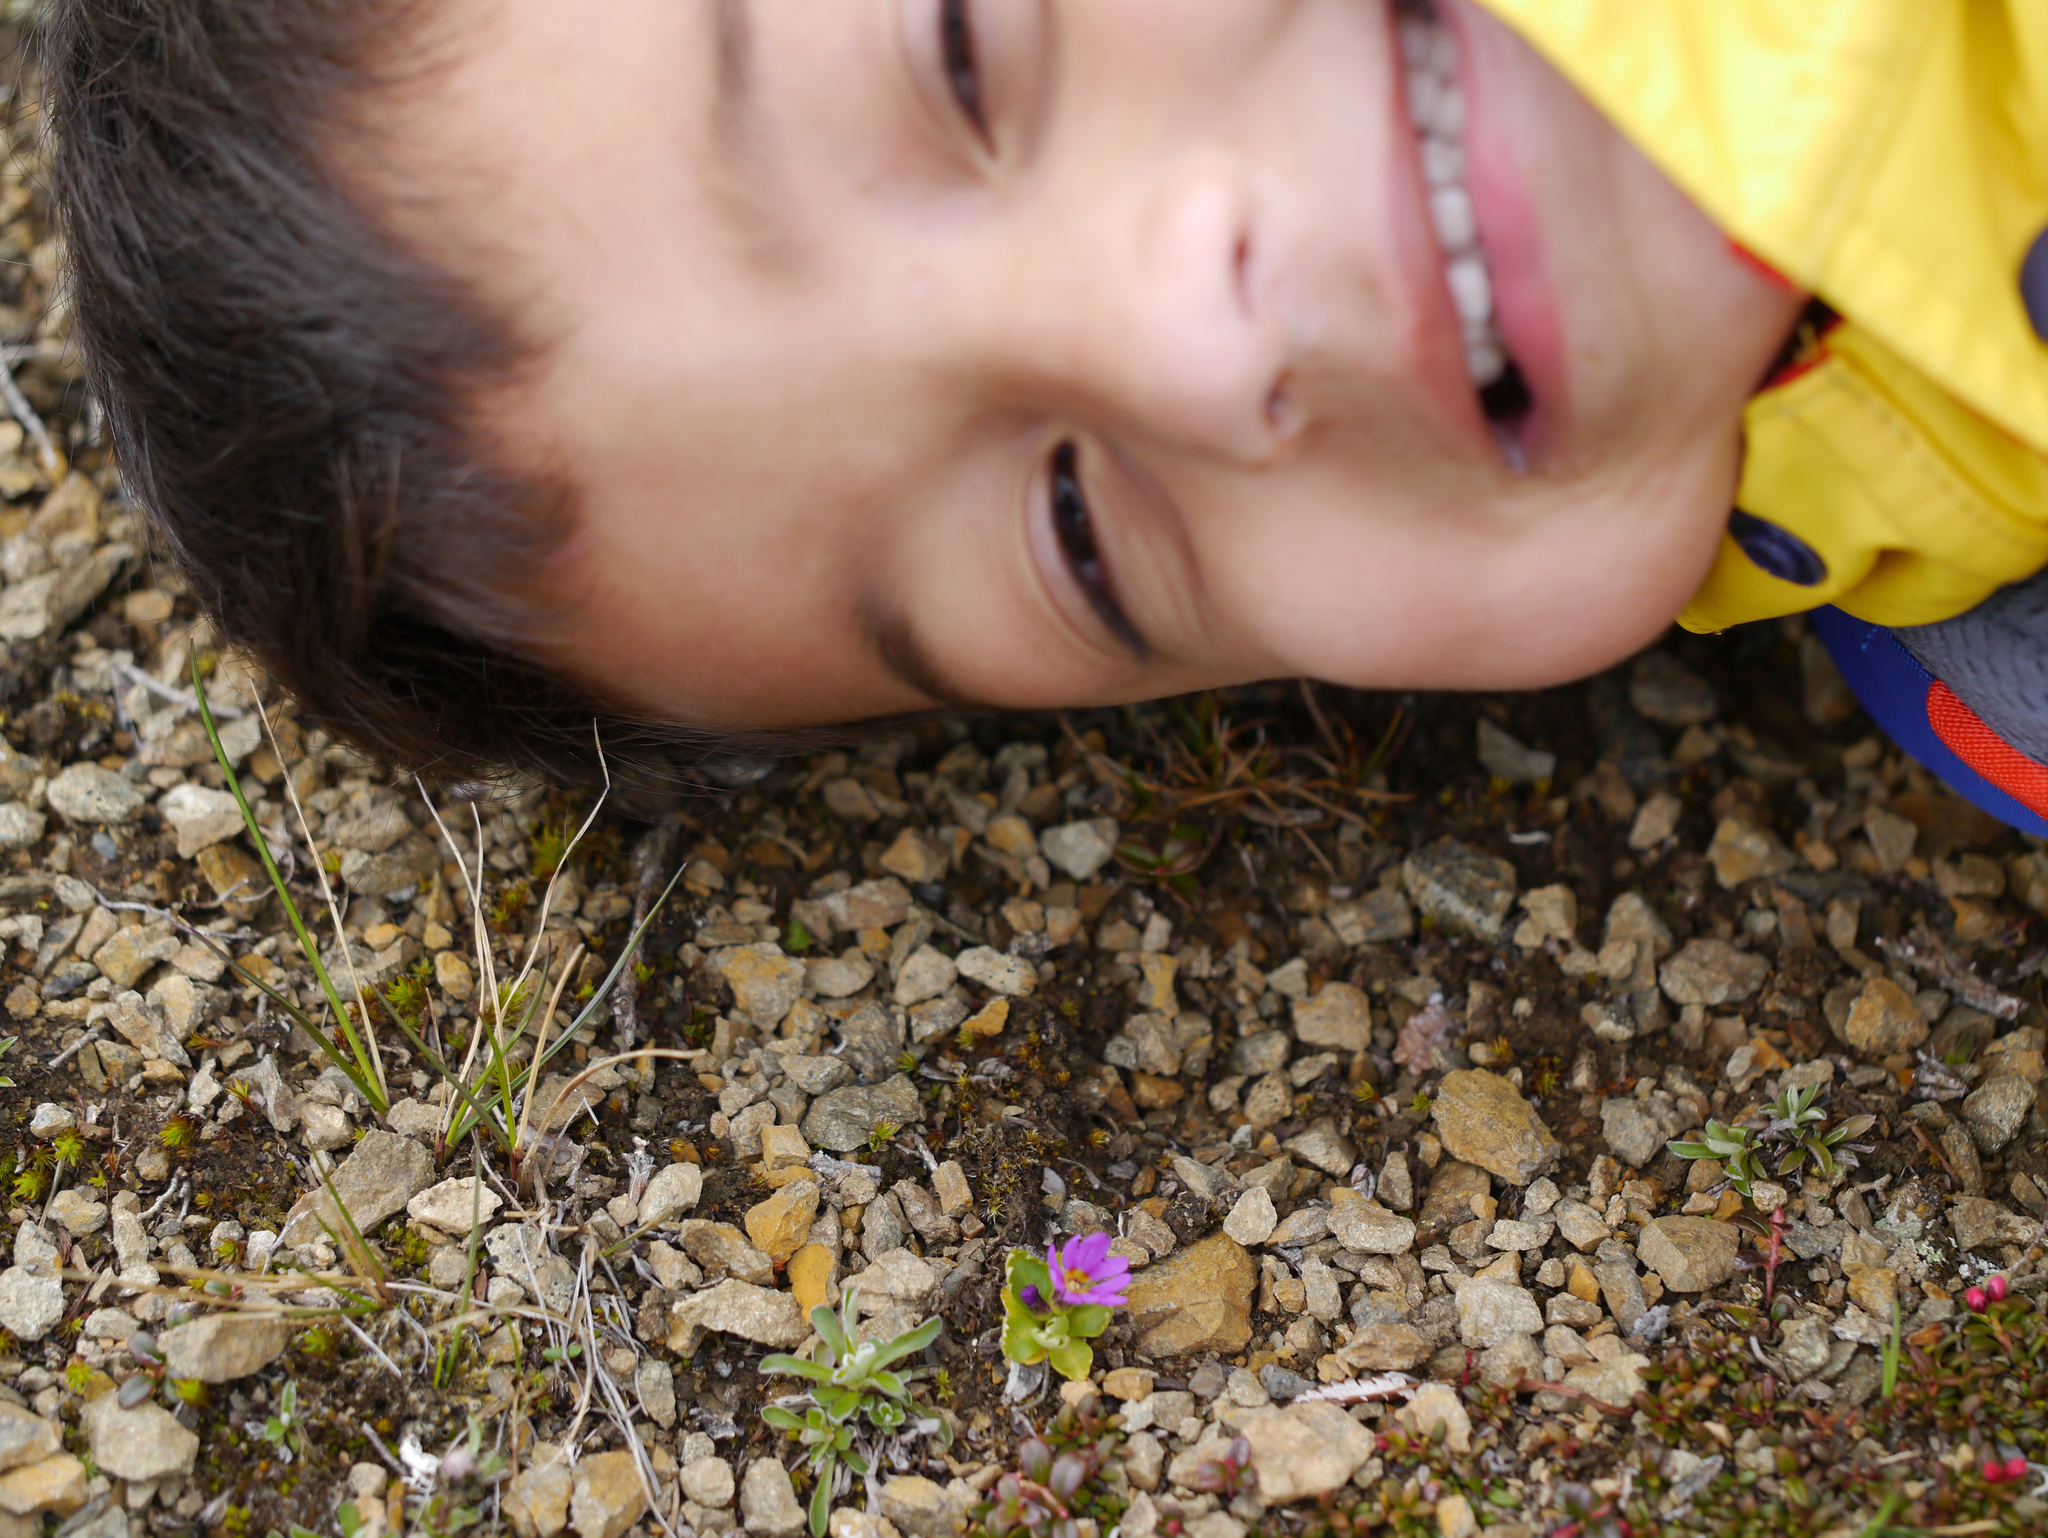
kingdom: Plantae
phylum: Tracheophyta
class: Magnoliopsida
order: Ericales
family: Primulaceae
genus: Primula
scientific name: Primula cuneifolia
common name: Wedge-leaved primrose
